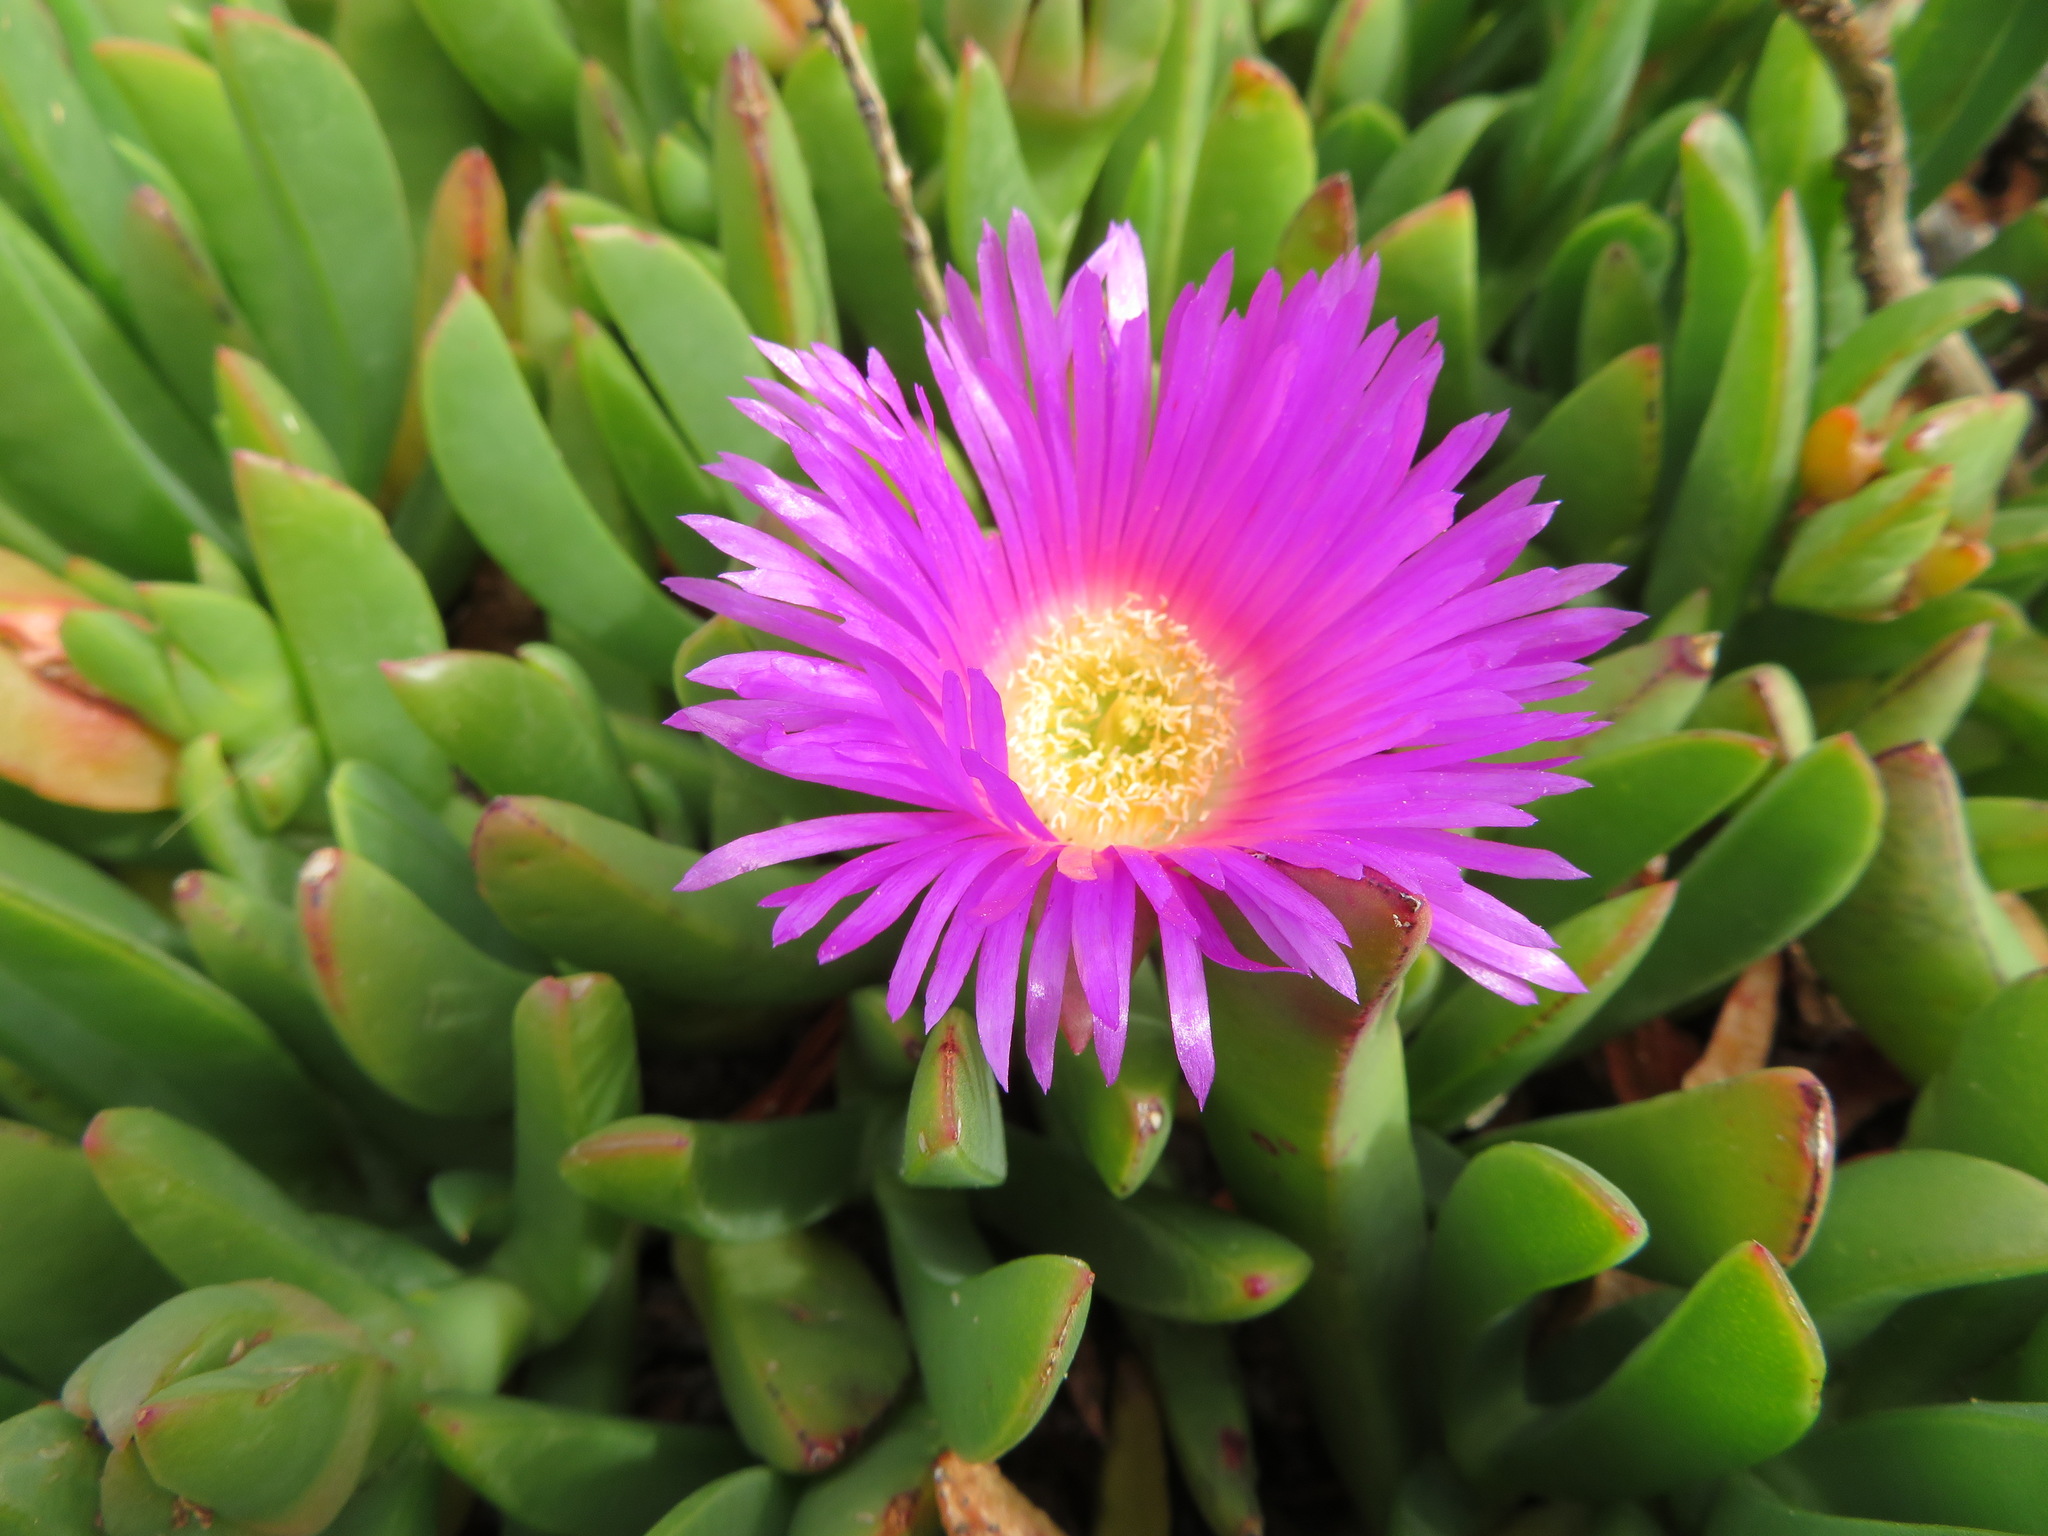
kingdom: Plantae
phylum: Tracheophyta
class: Magnoliopsida
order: Caryophyllales
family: Aizoaceae
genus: Carpobrotus
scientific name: Carpobrotus rossii
